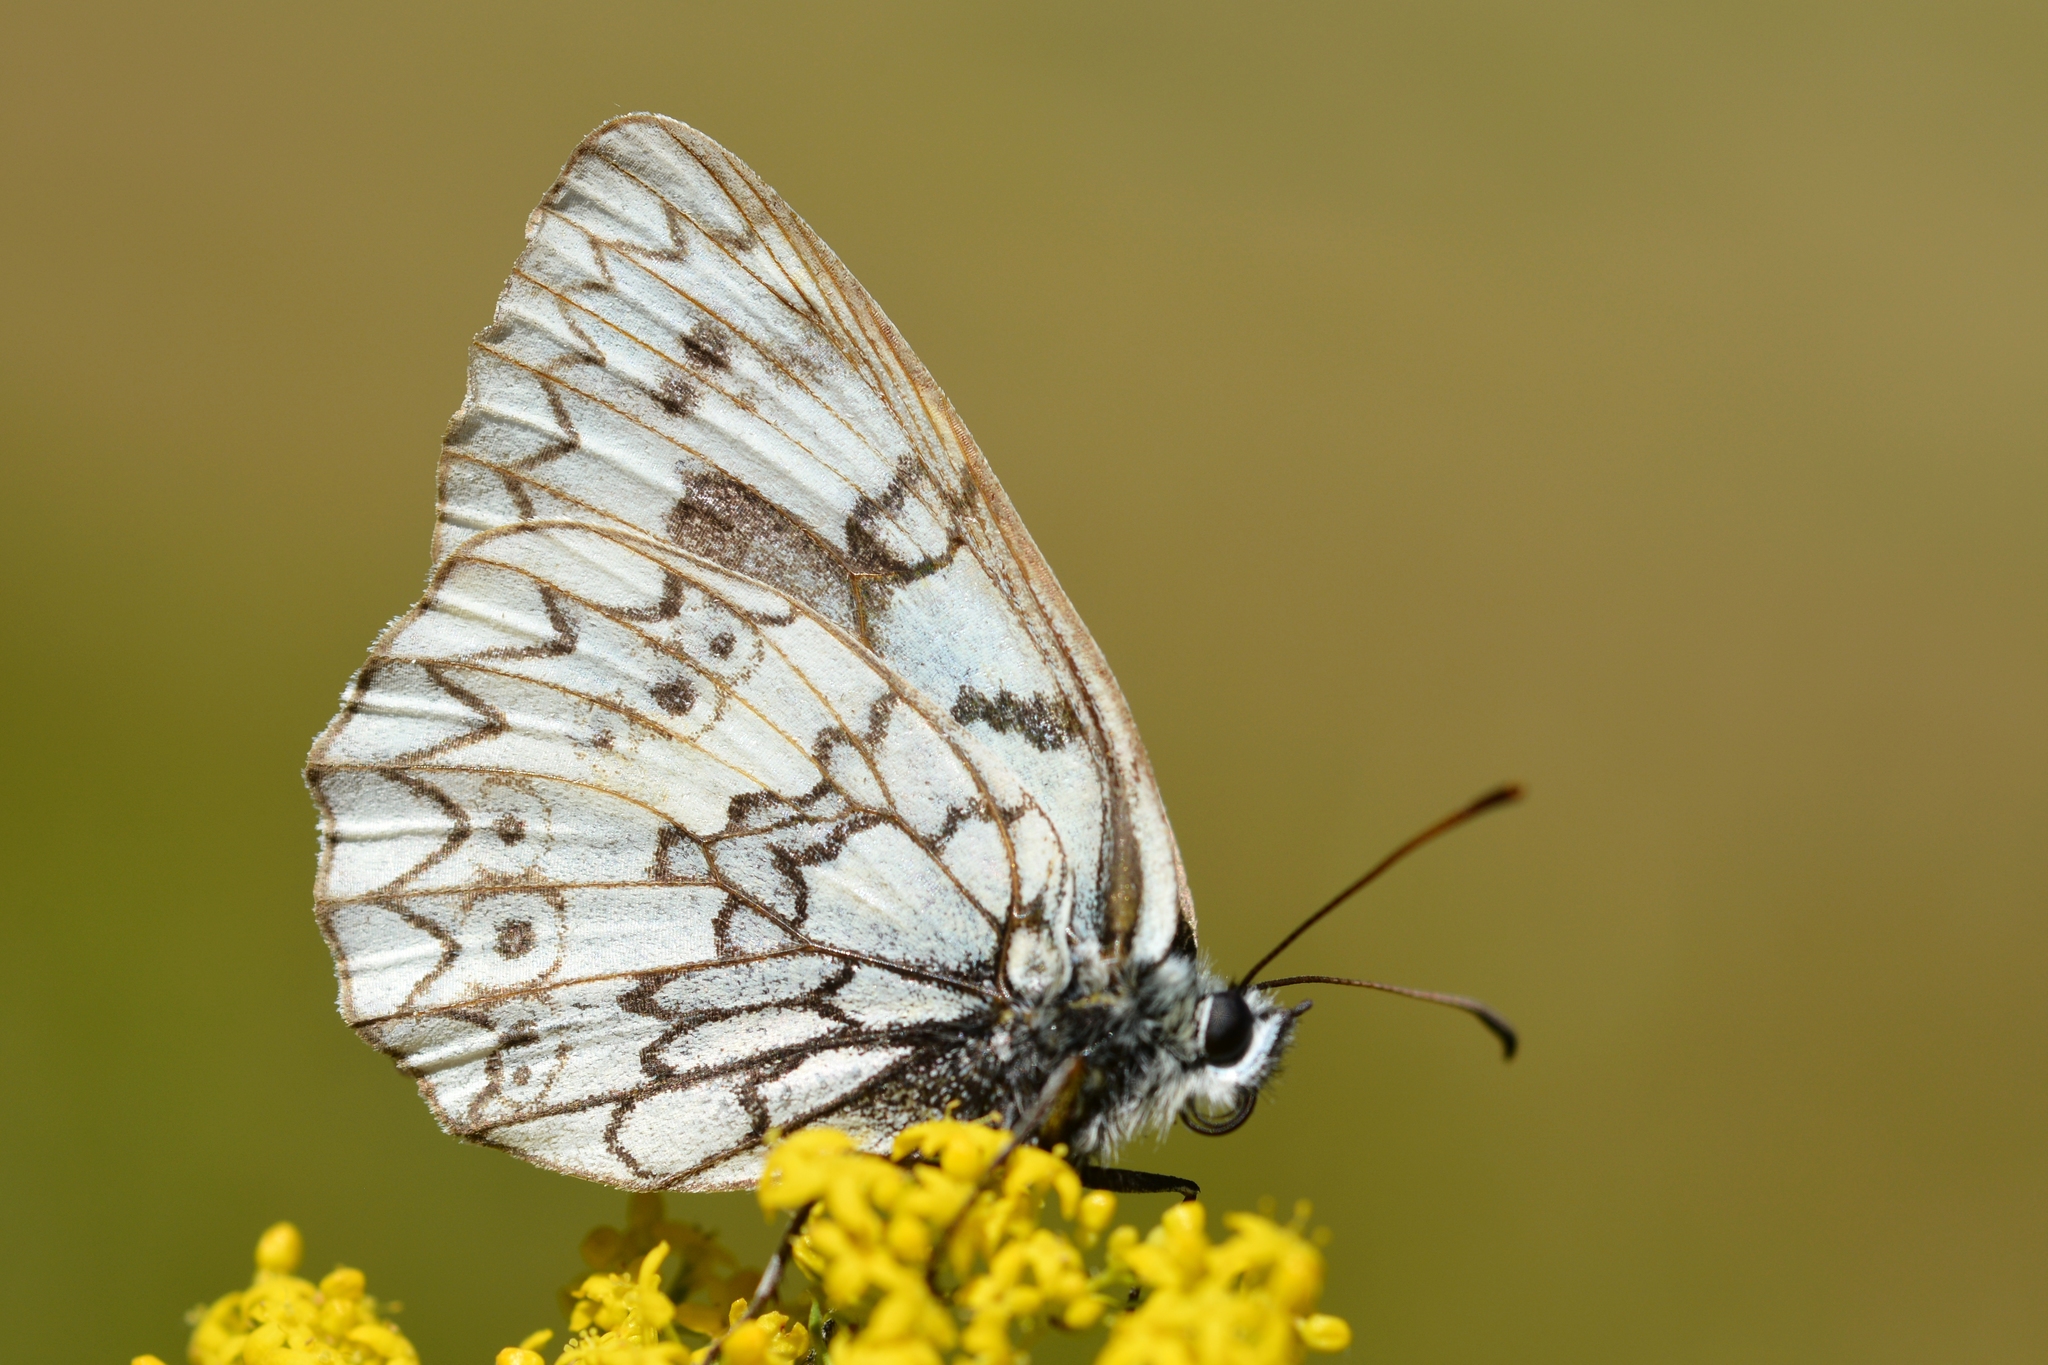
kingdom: Animalia
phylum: Arthropoda
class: Insecta
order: Lepidoptera
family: Nymphalidae
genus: Melanargia
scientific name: Melanargia japygia
